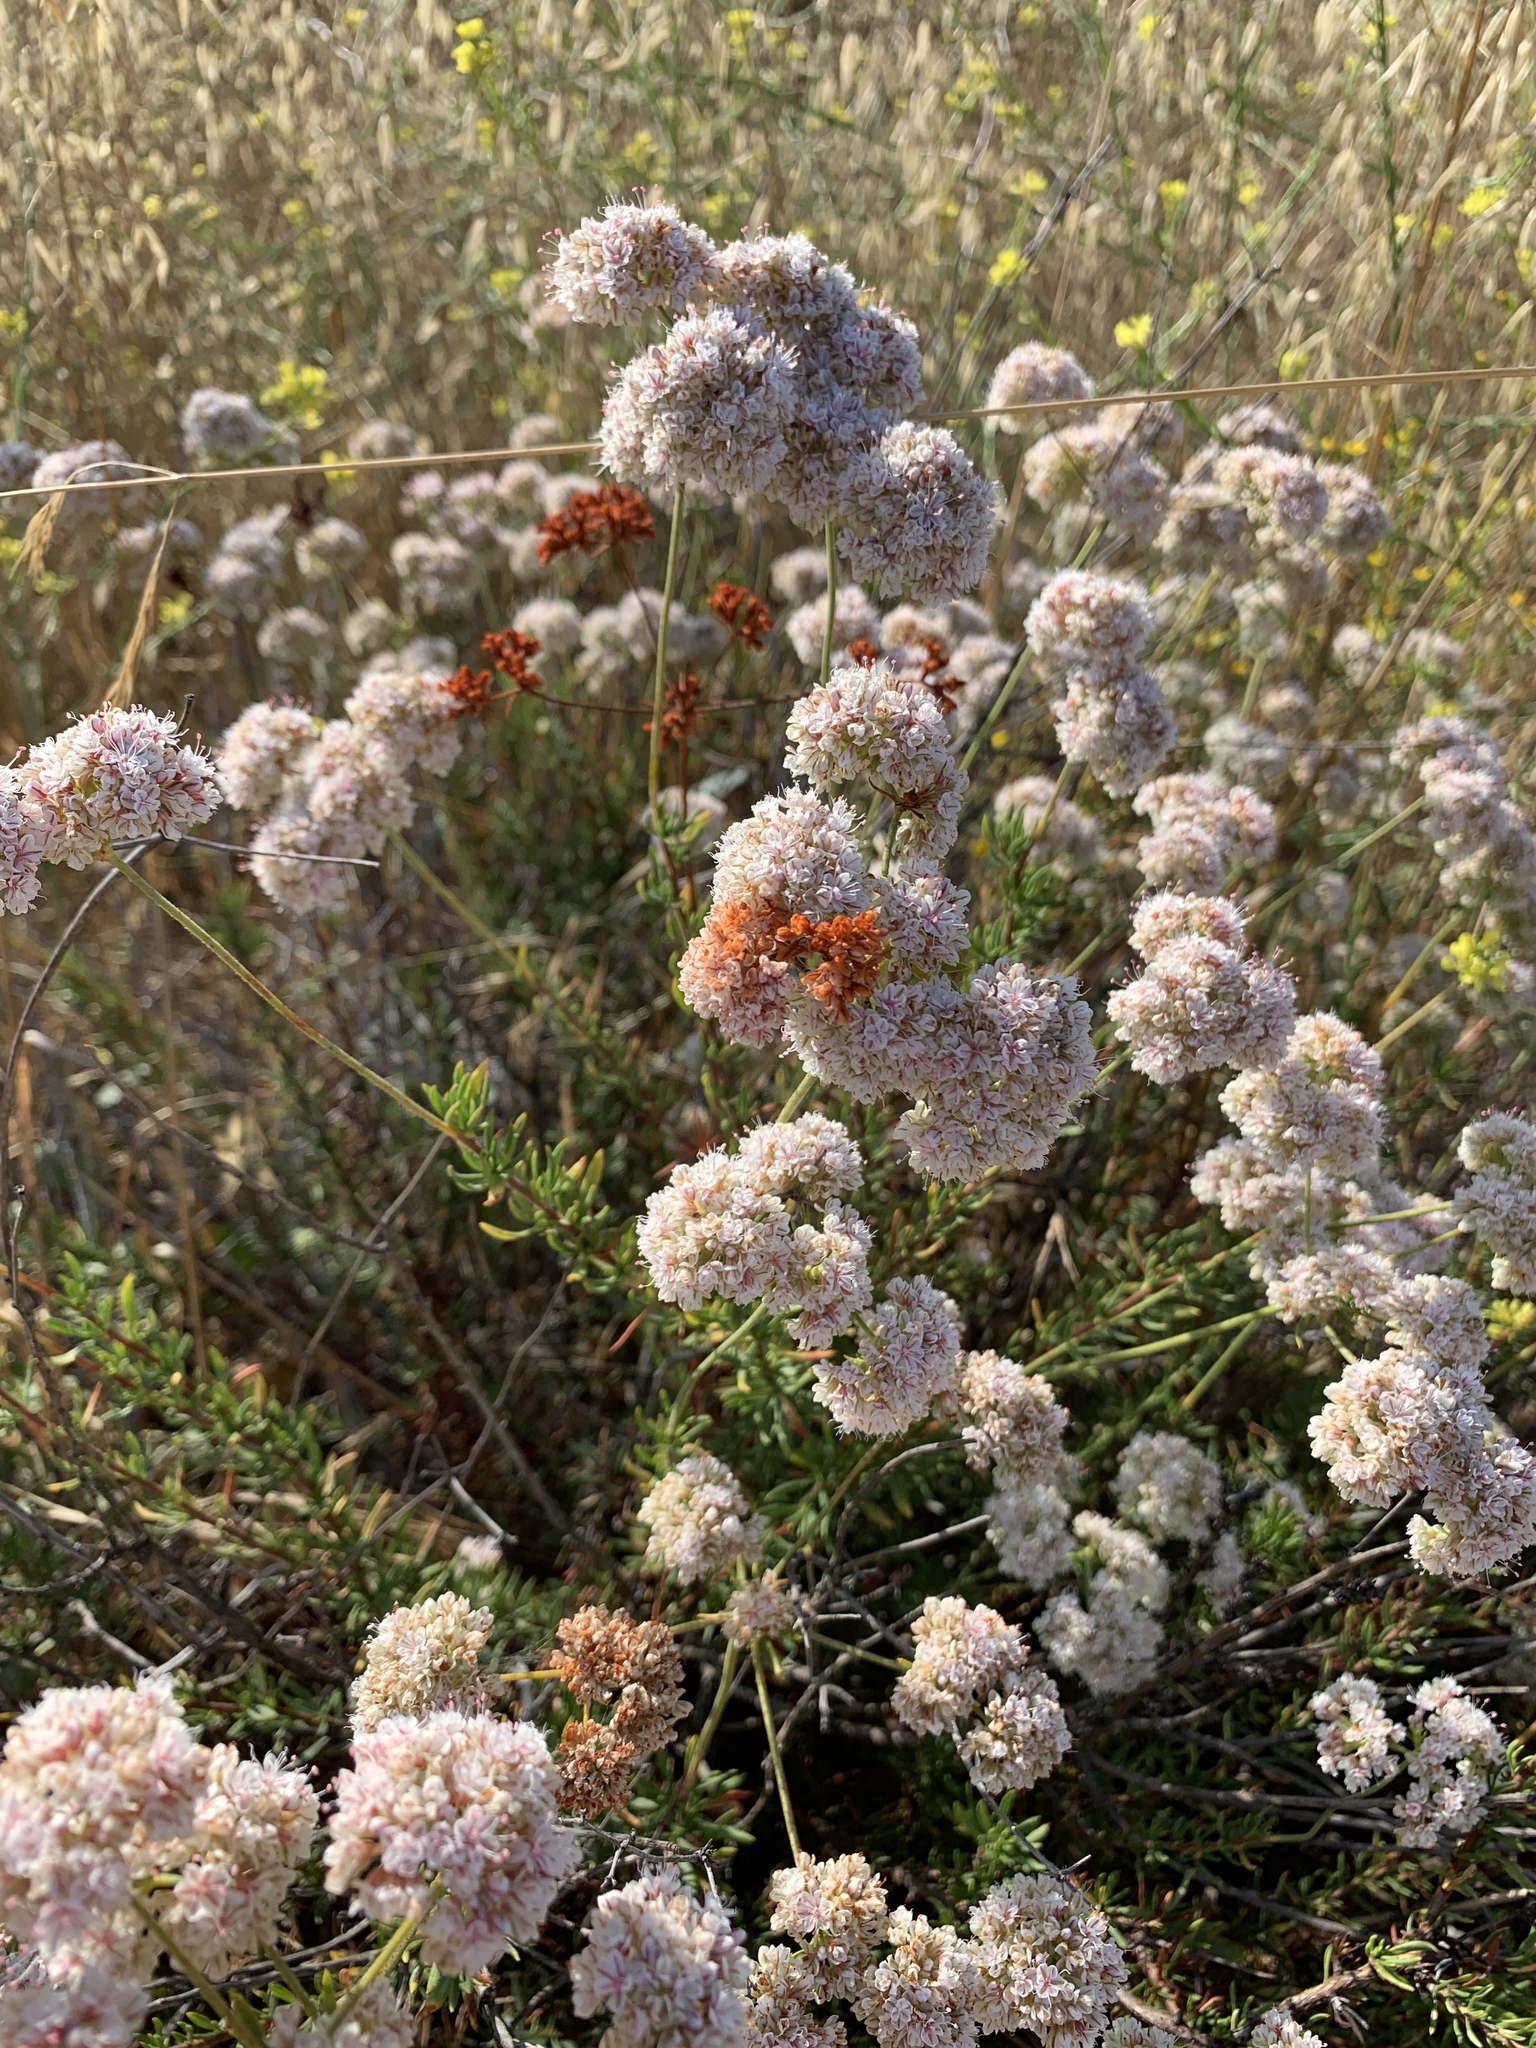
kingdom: Plantae
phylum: Tracheophyta
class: Magnoliopsida
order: Caryophyllales
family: Polygonaceae
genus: Eriogonum
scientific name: Eriogonum fasciculatum
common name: California wild buckwheat
